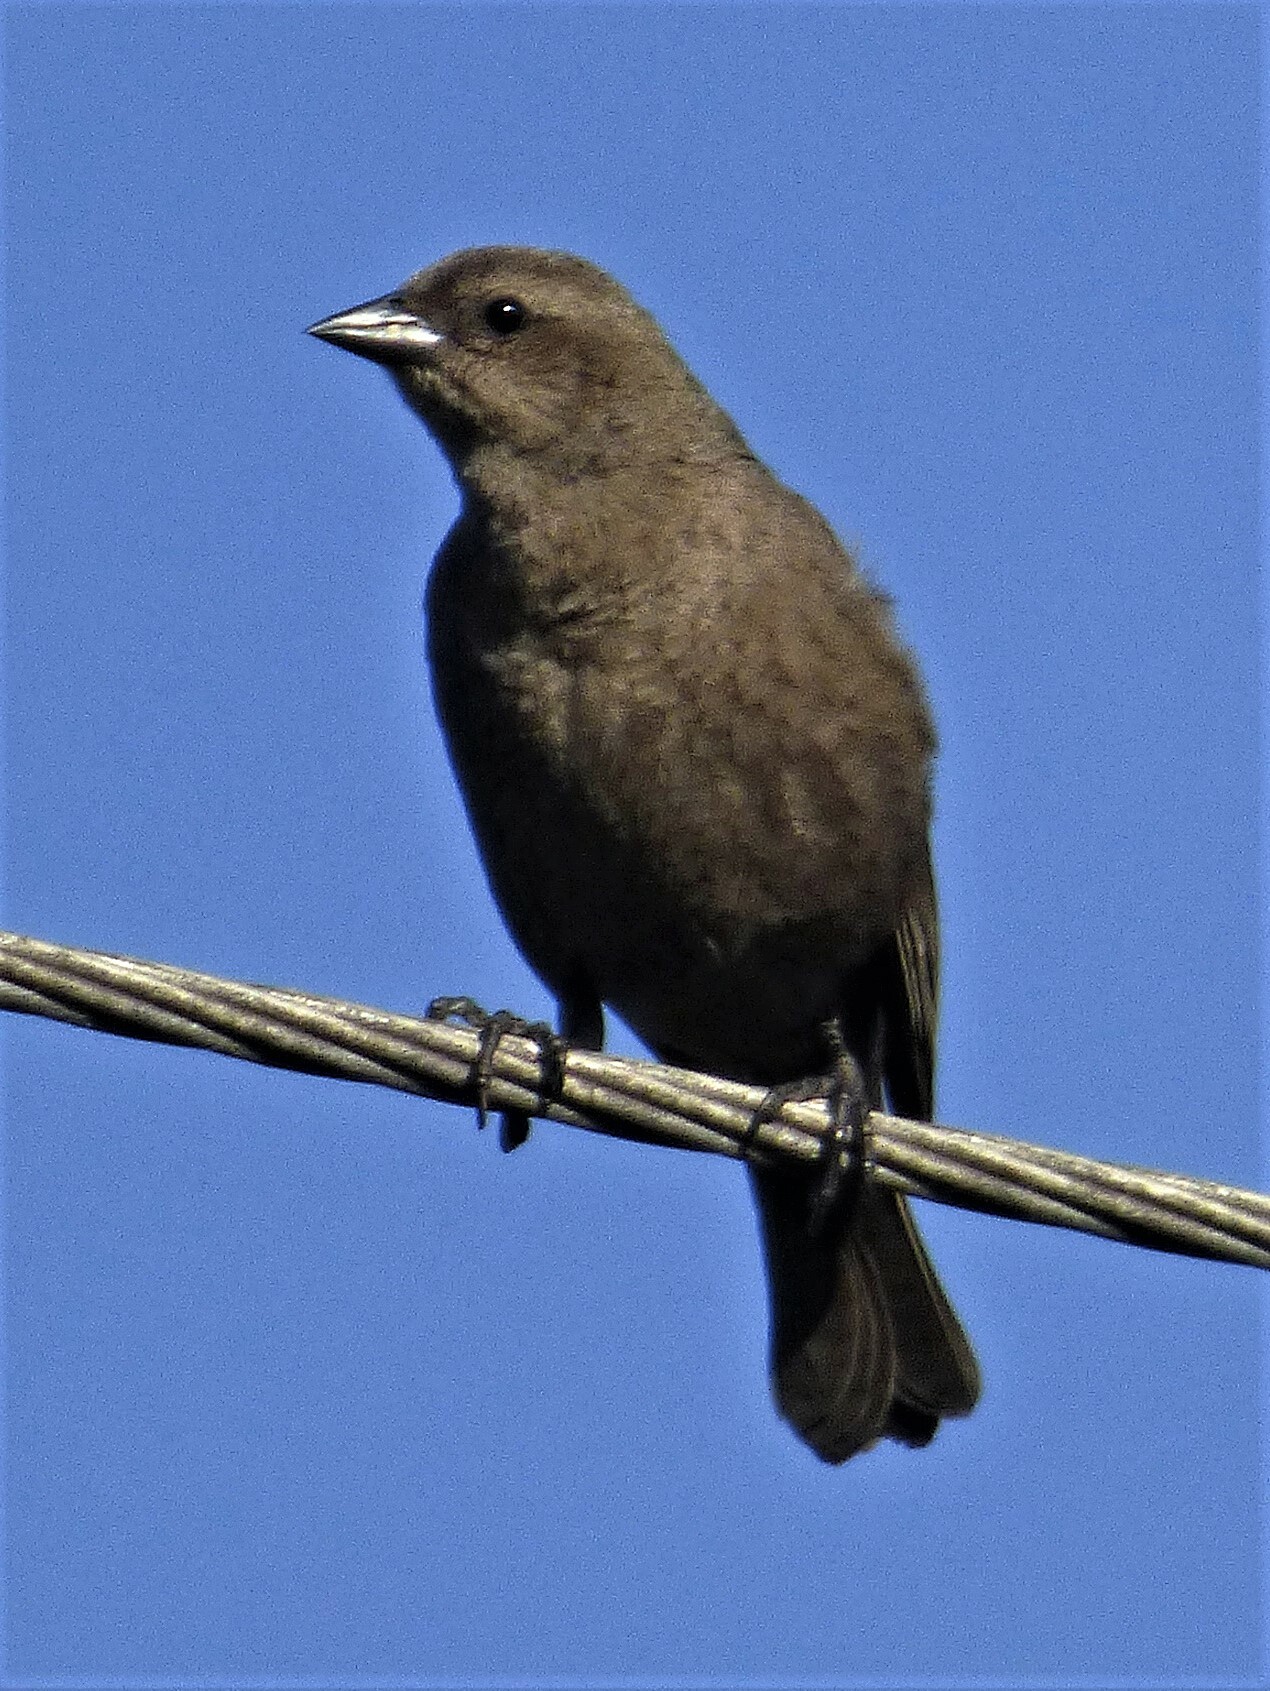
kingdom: Animalia
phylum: Chordata
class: Aves
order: Passeriformes
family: Icteridae
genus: Molothrus
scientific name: Molothrus bonariensis
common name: Shiny cowbird
